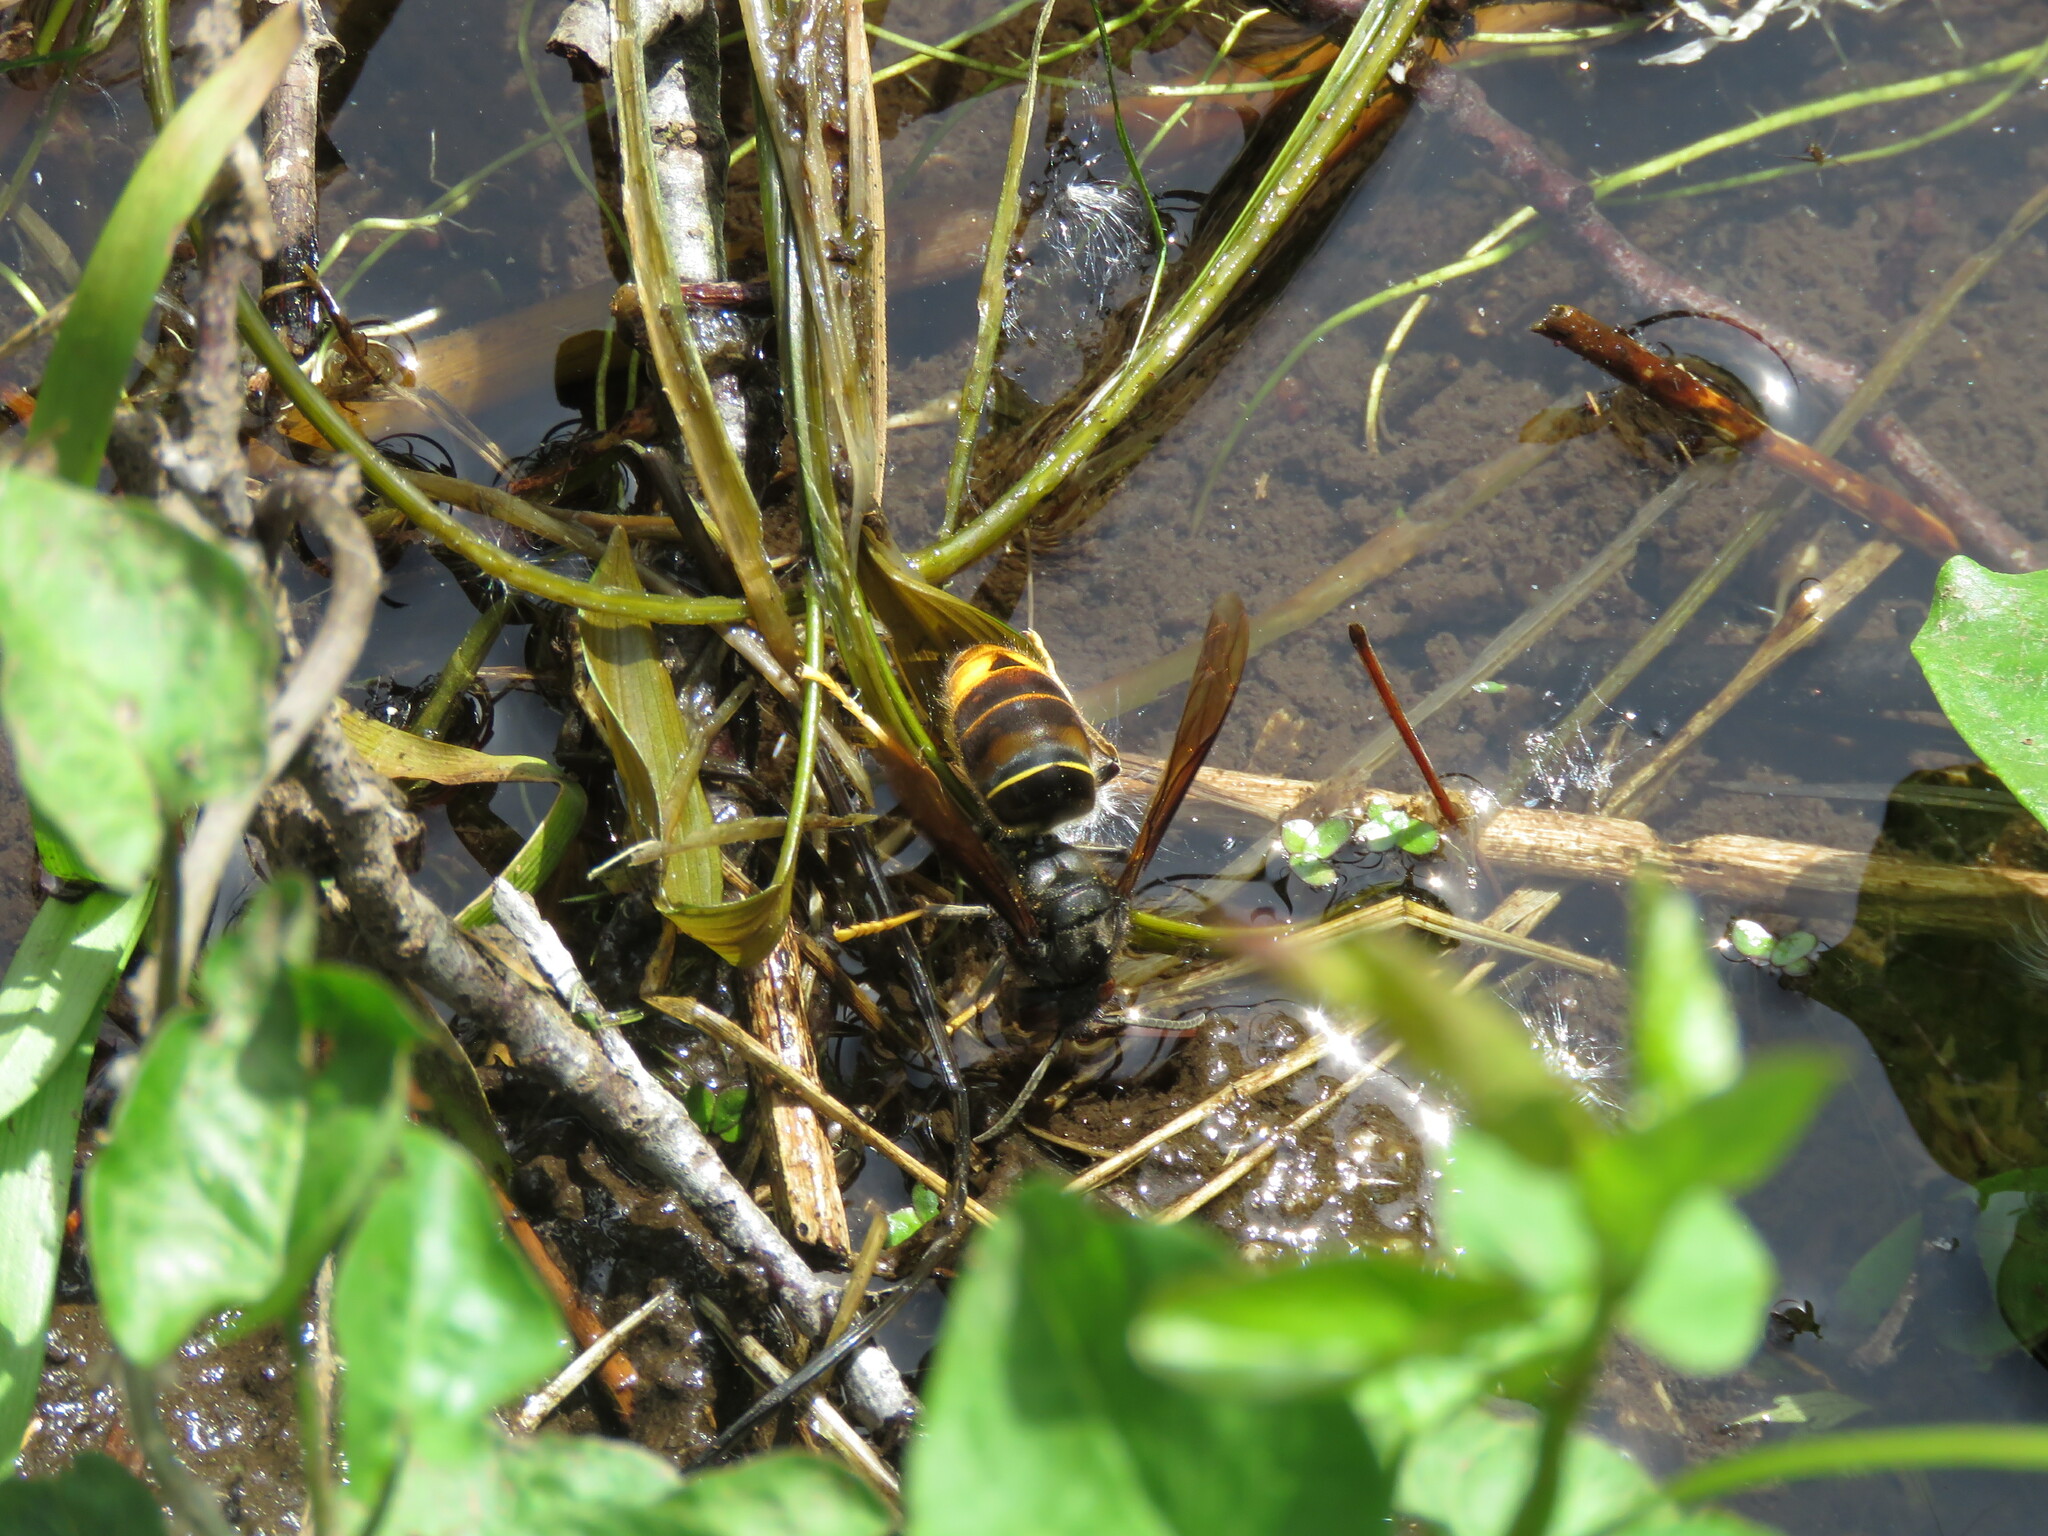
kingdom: Animalia
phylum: Arthropoda
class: Insecta
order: Hymenoptera
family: Vespidae
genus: Vespa
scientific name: Vespa velutina
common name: Asian hornet
